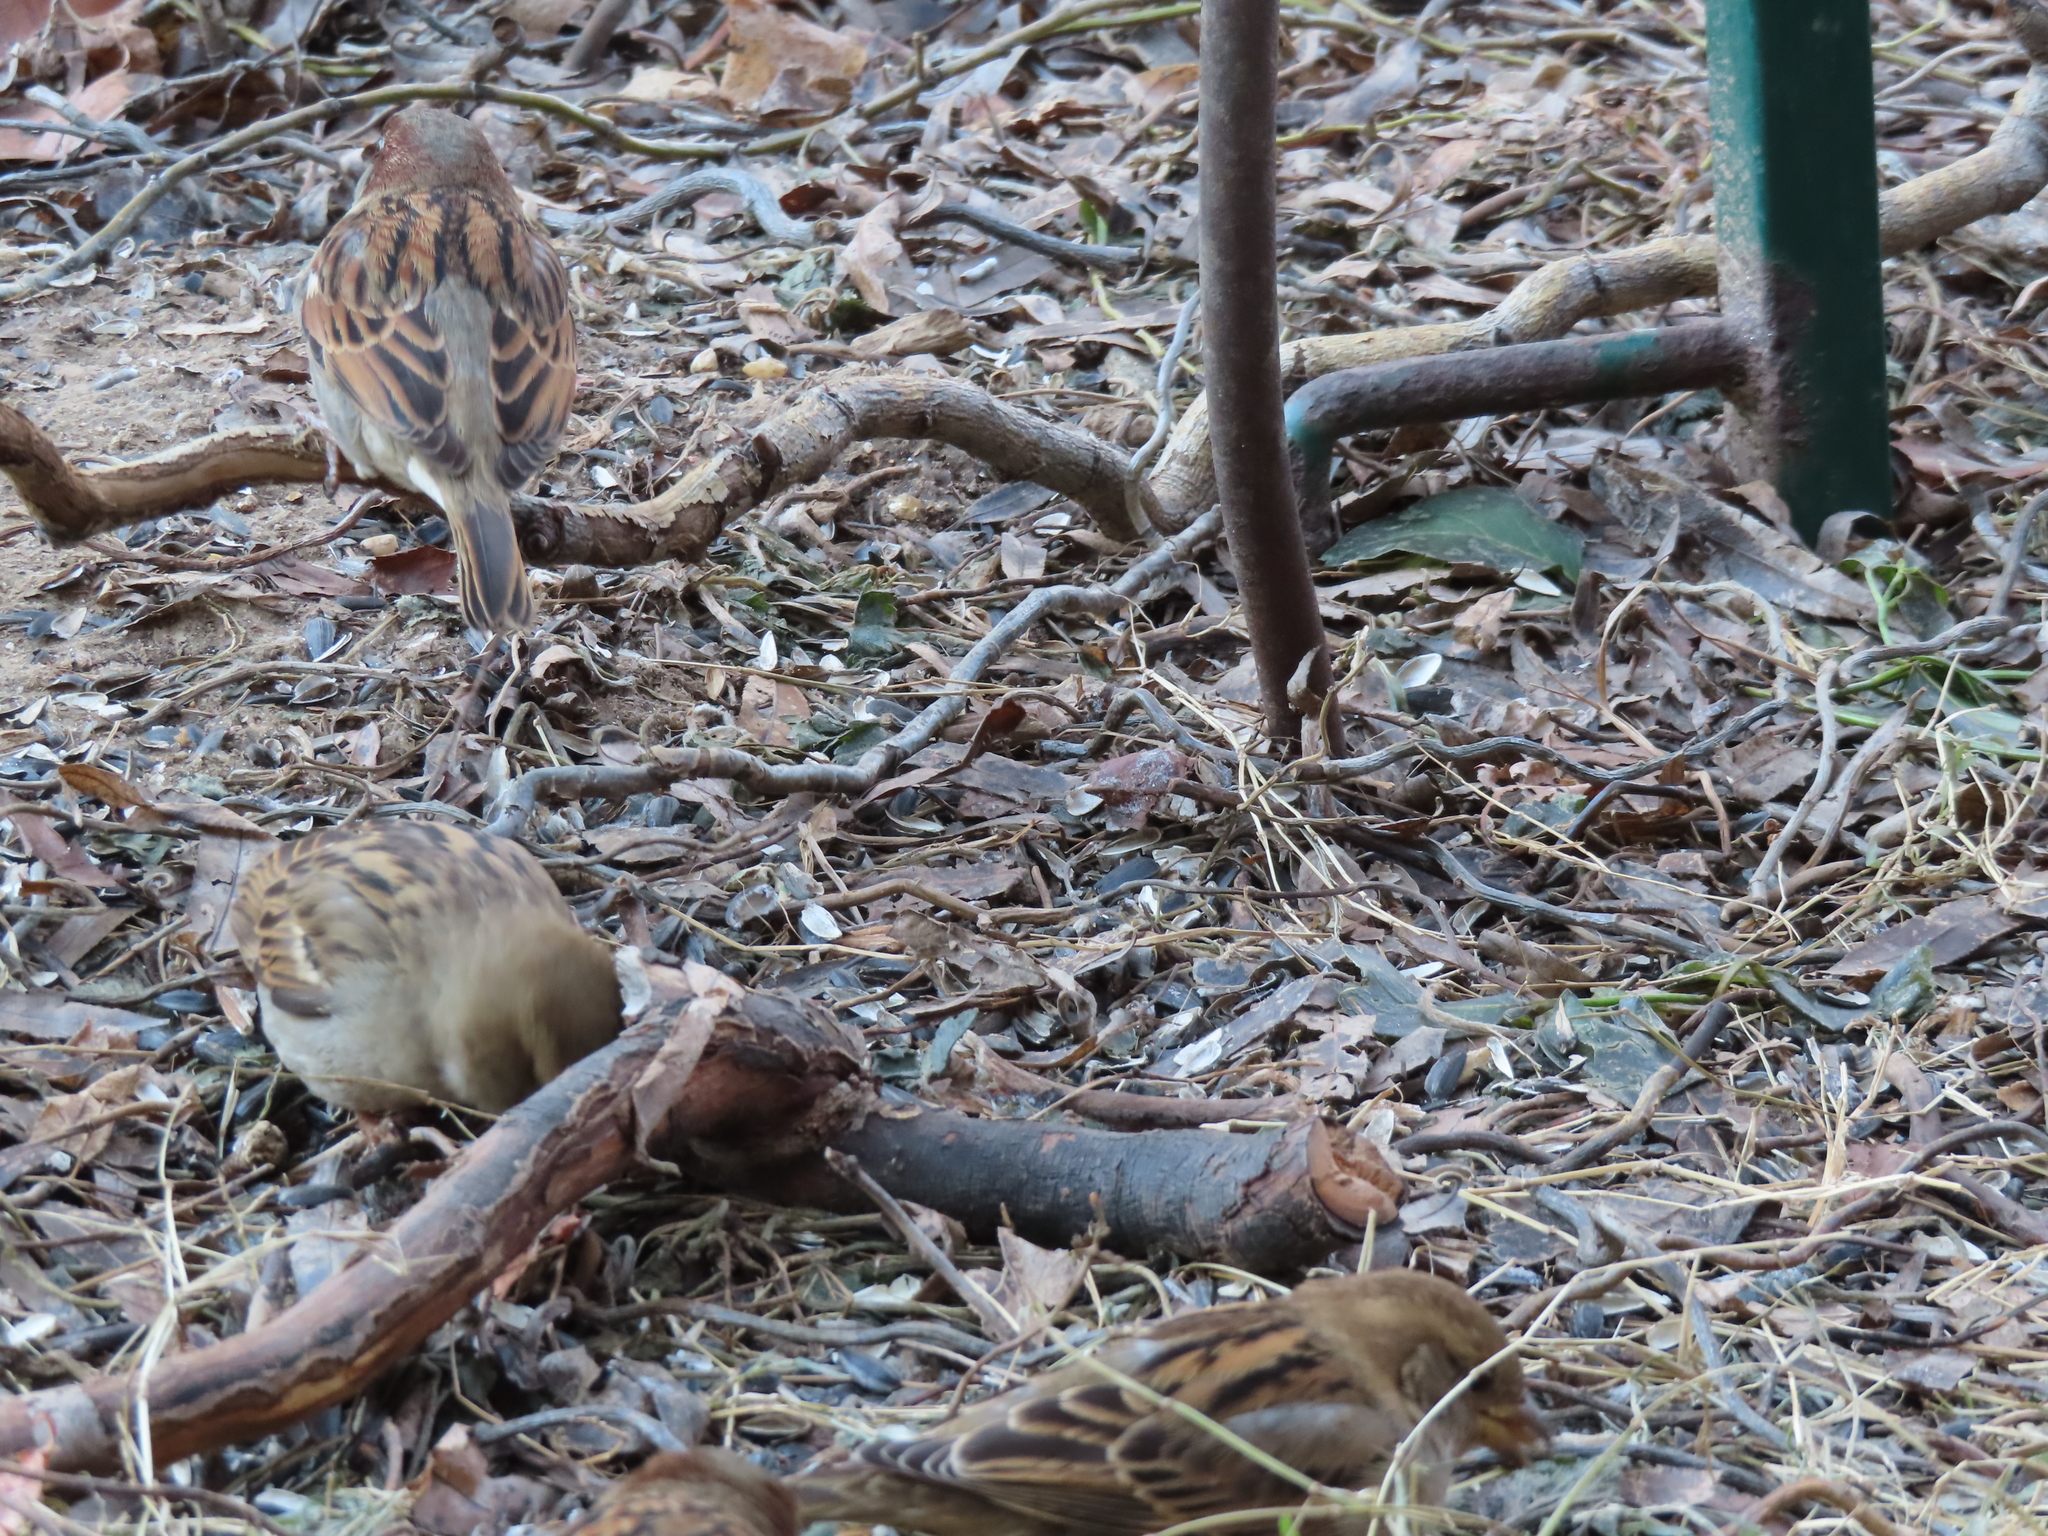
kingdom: Animalia
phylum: Chordata
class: Aves
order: Passeriformes
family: Passeridae
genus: Passer
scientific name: Passer domesticus
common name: House sparrow
